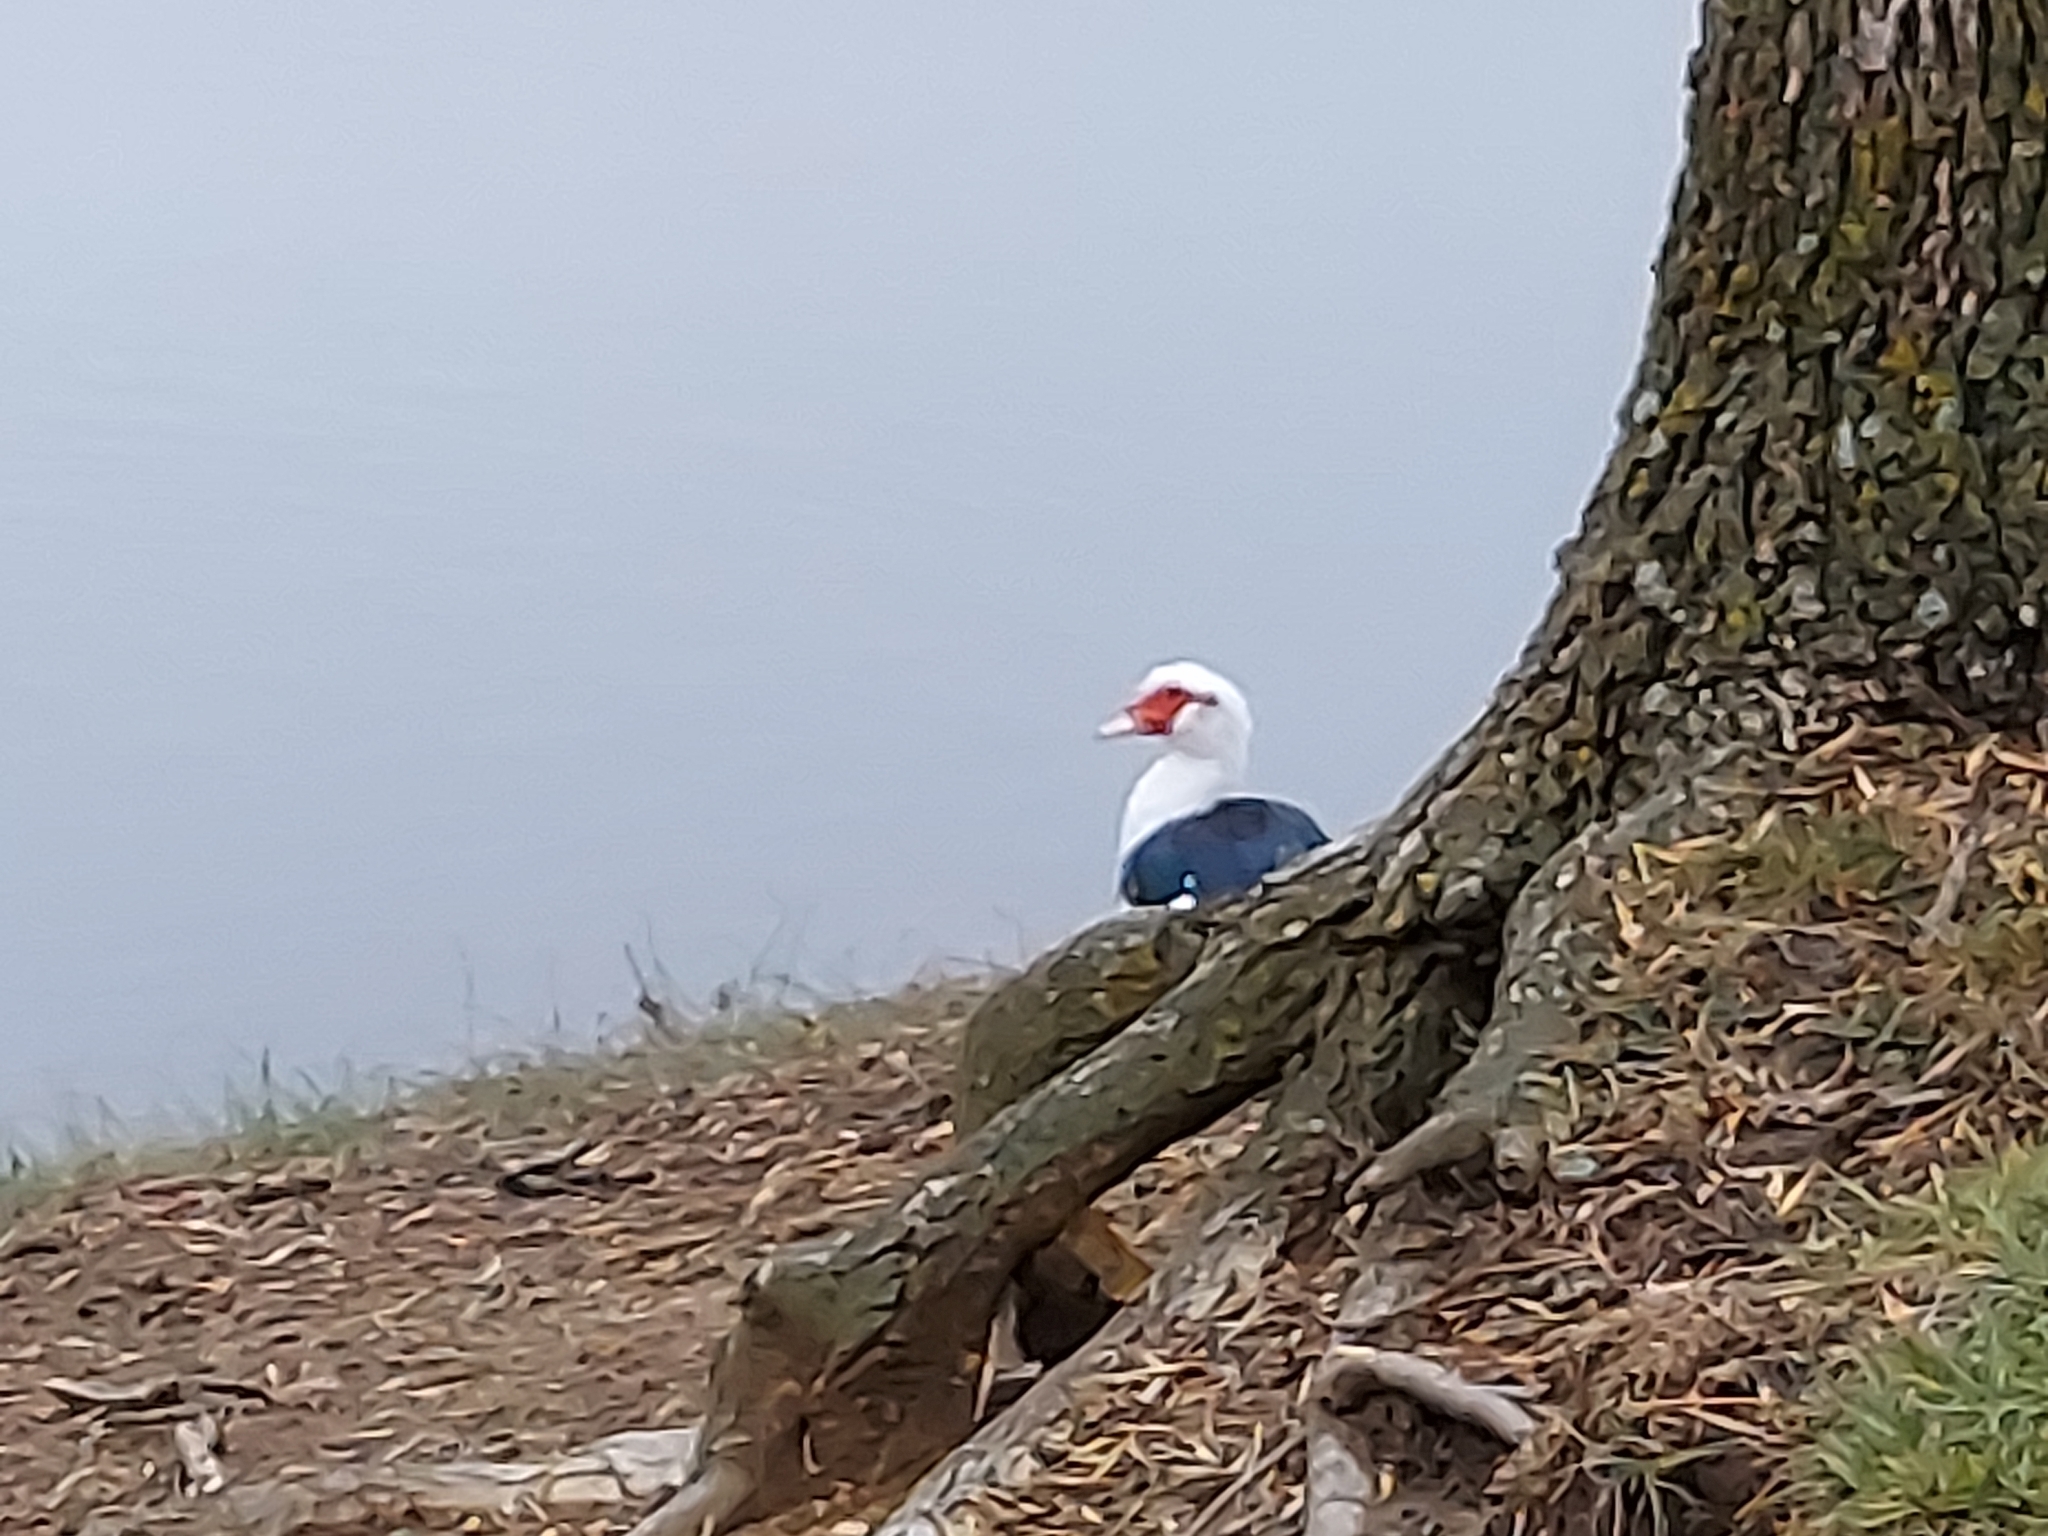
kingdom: Animalia
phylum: Chordata
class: Aves
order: Anseriformes
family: Anatidae
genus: Cairina
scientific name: Cairina moschata
